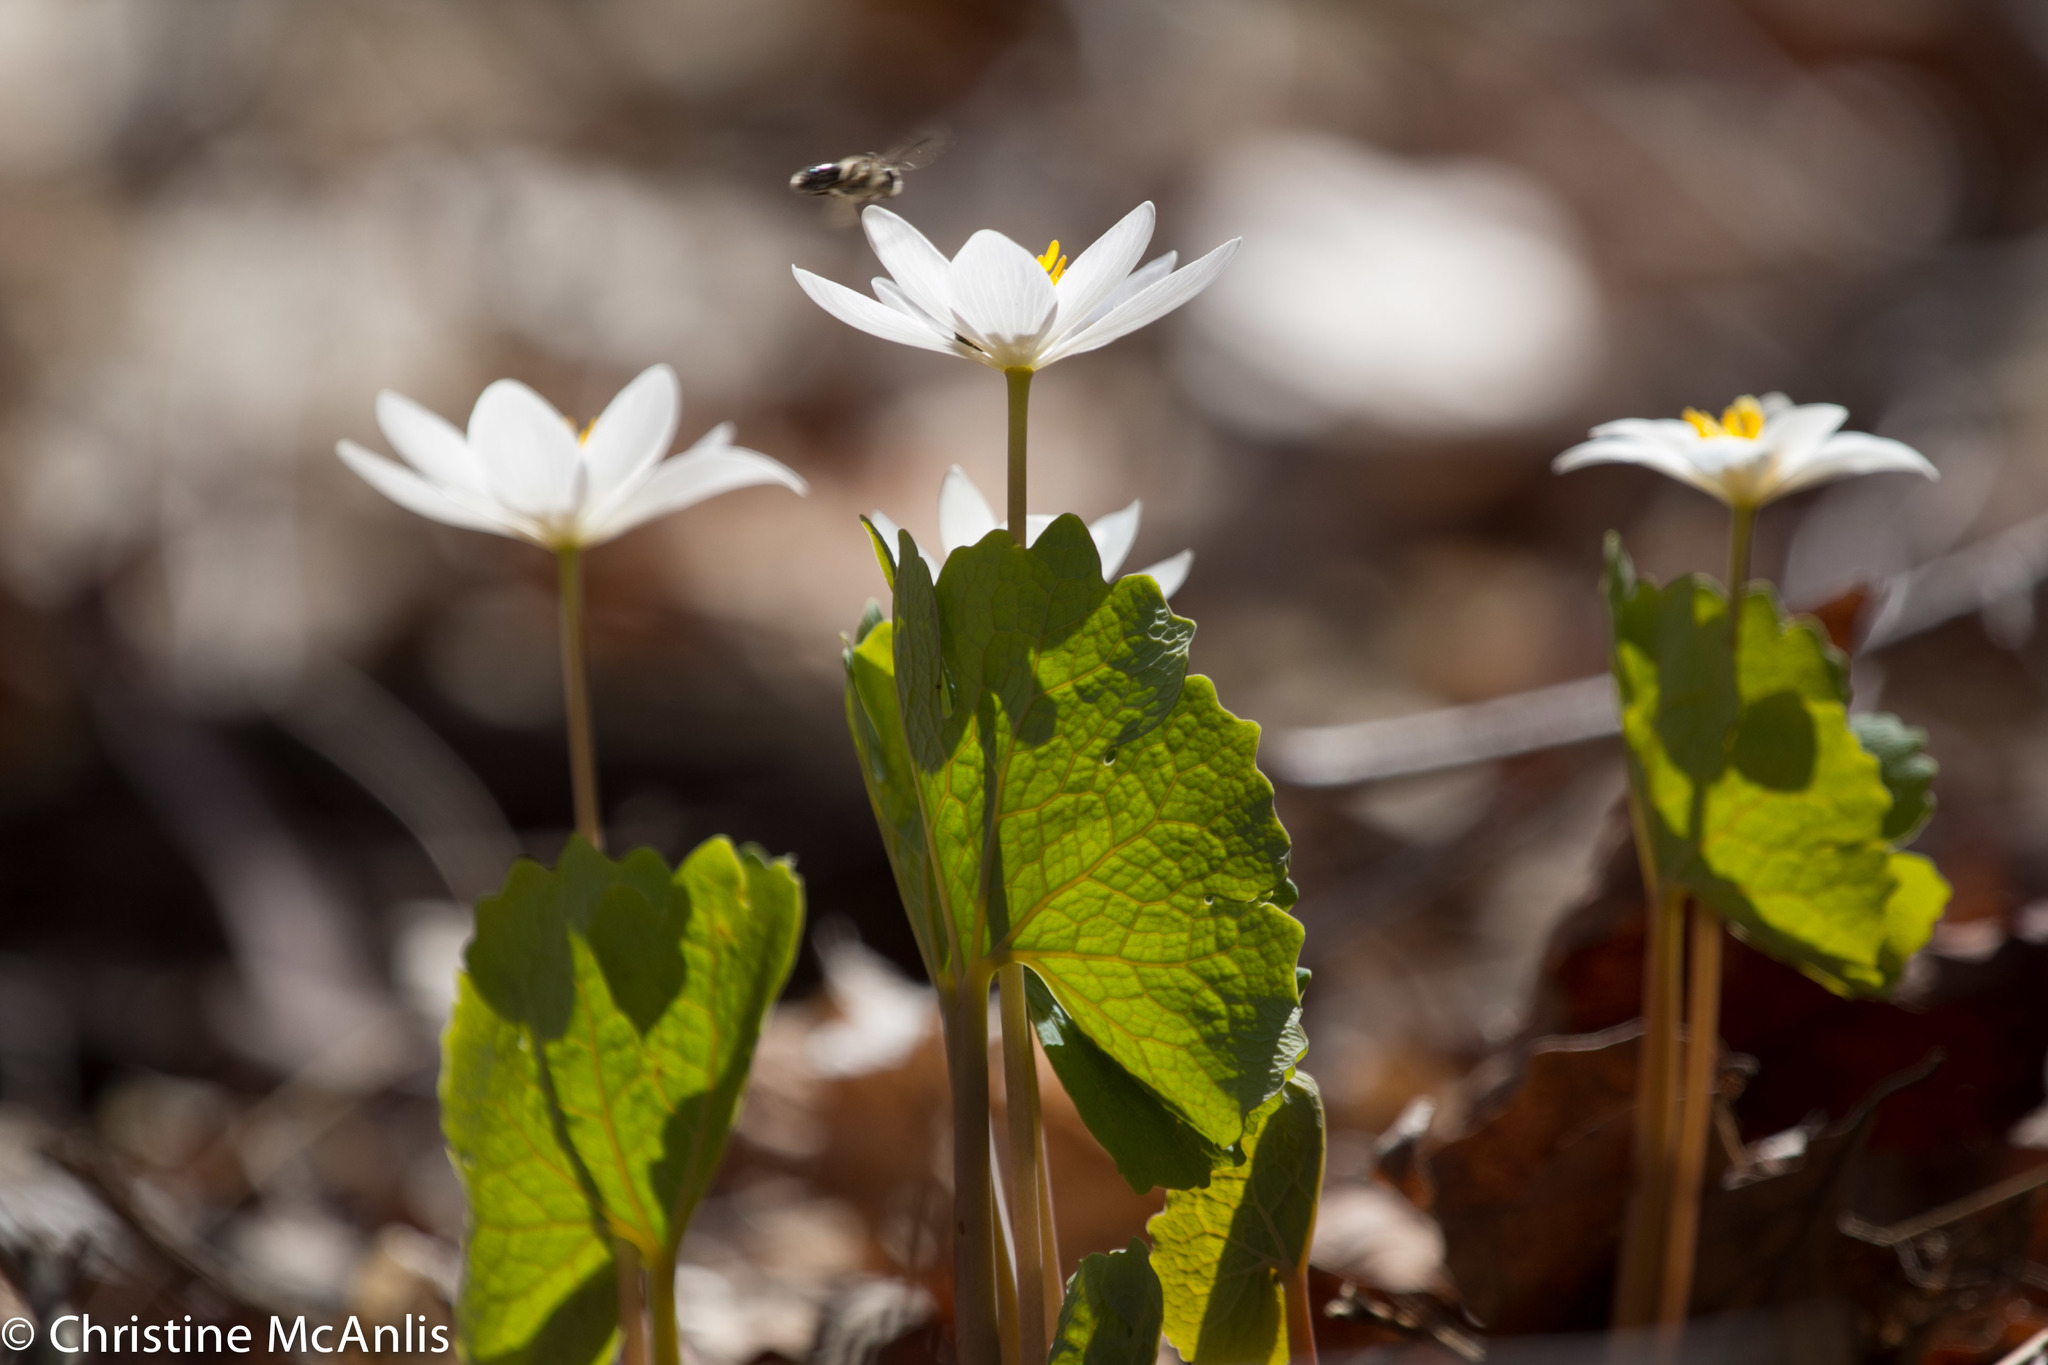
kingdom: Plantae
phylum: Tracheophyta
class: Magnoliopsida
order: Ranunculales
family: Papaveraceae
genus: Sanguinaria
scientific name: Sanguinaria canadensis
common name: Bloodroot
